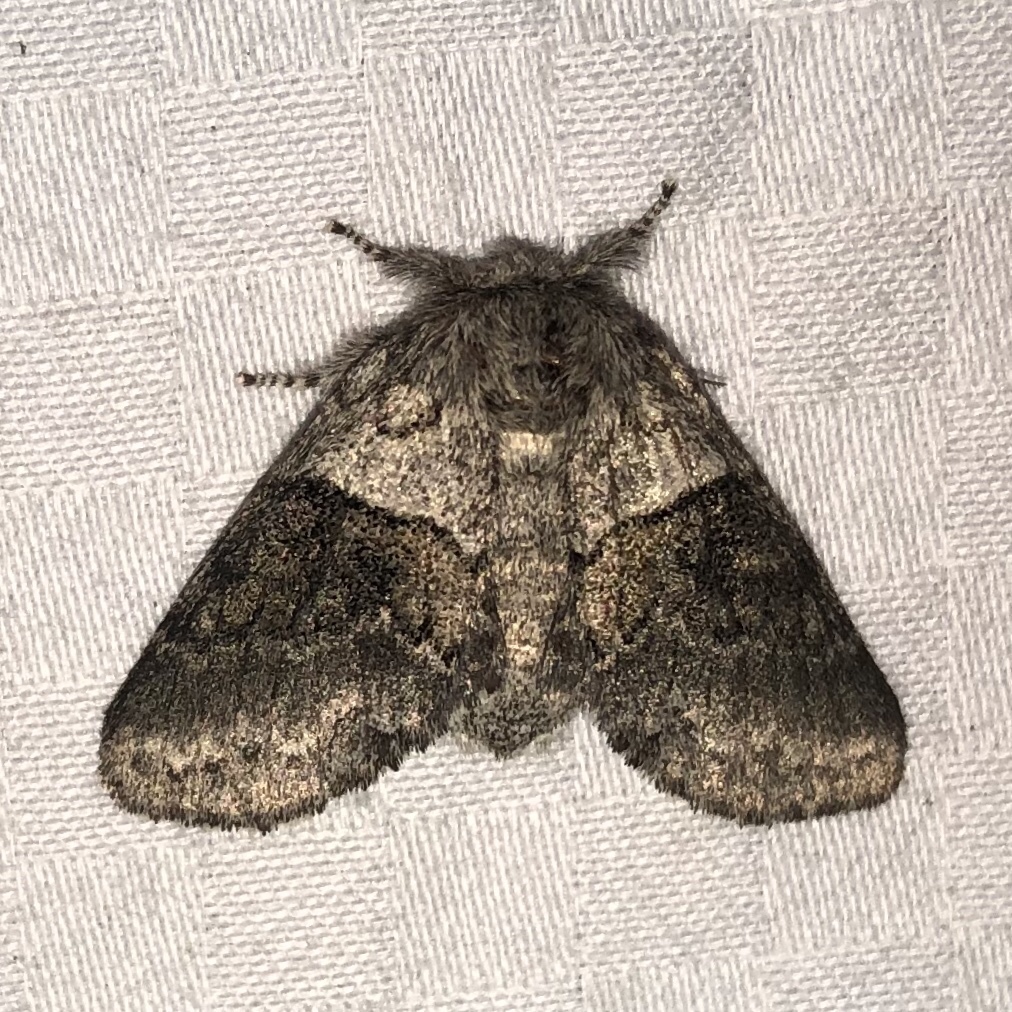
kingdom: Animalia
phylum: Arthropoda
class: Insecta
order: Lepidoptera
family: Notodontidae
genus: Gluphisia
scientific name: Gluphisia septentrionis
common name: Common gluphisia
